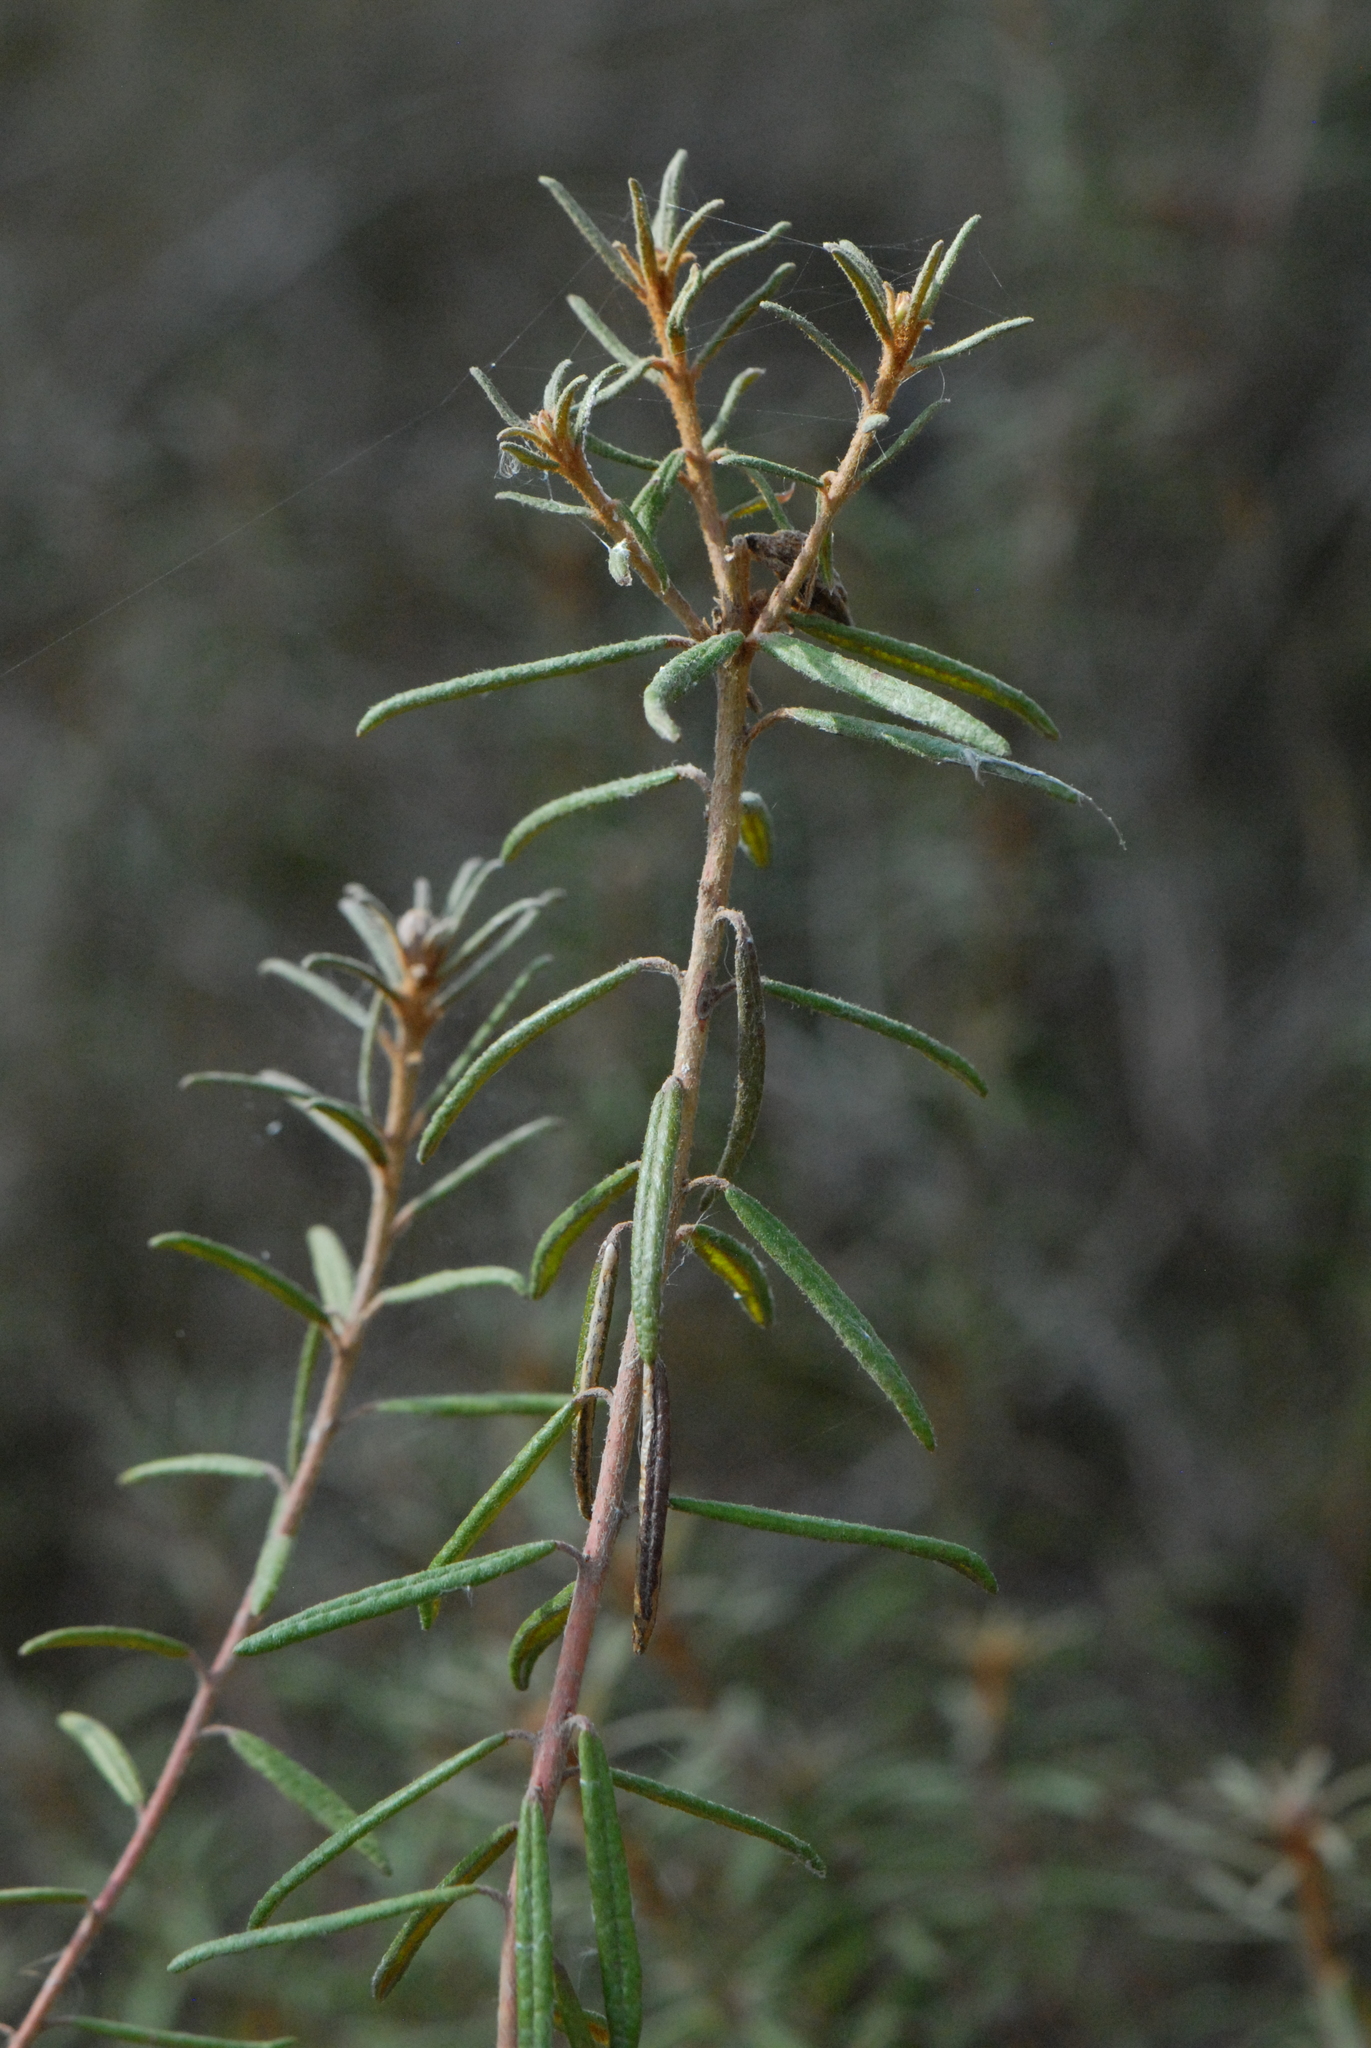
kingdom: Plantae
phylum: Tracheophyta
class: Magnoliopsida
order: Ericales
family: Ericaceae
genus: Rhododendron
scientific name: Rhododendron tomentosum
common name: Marsh labrador tea
